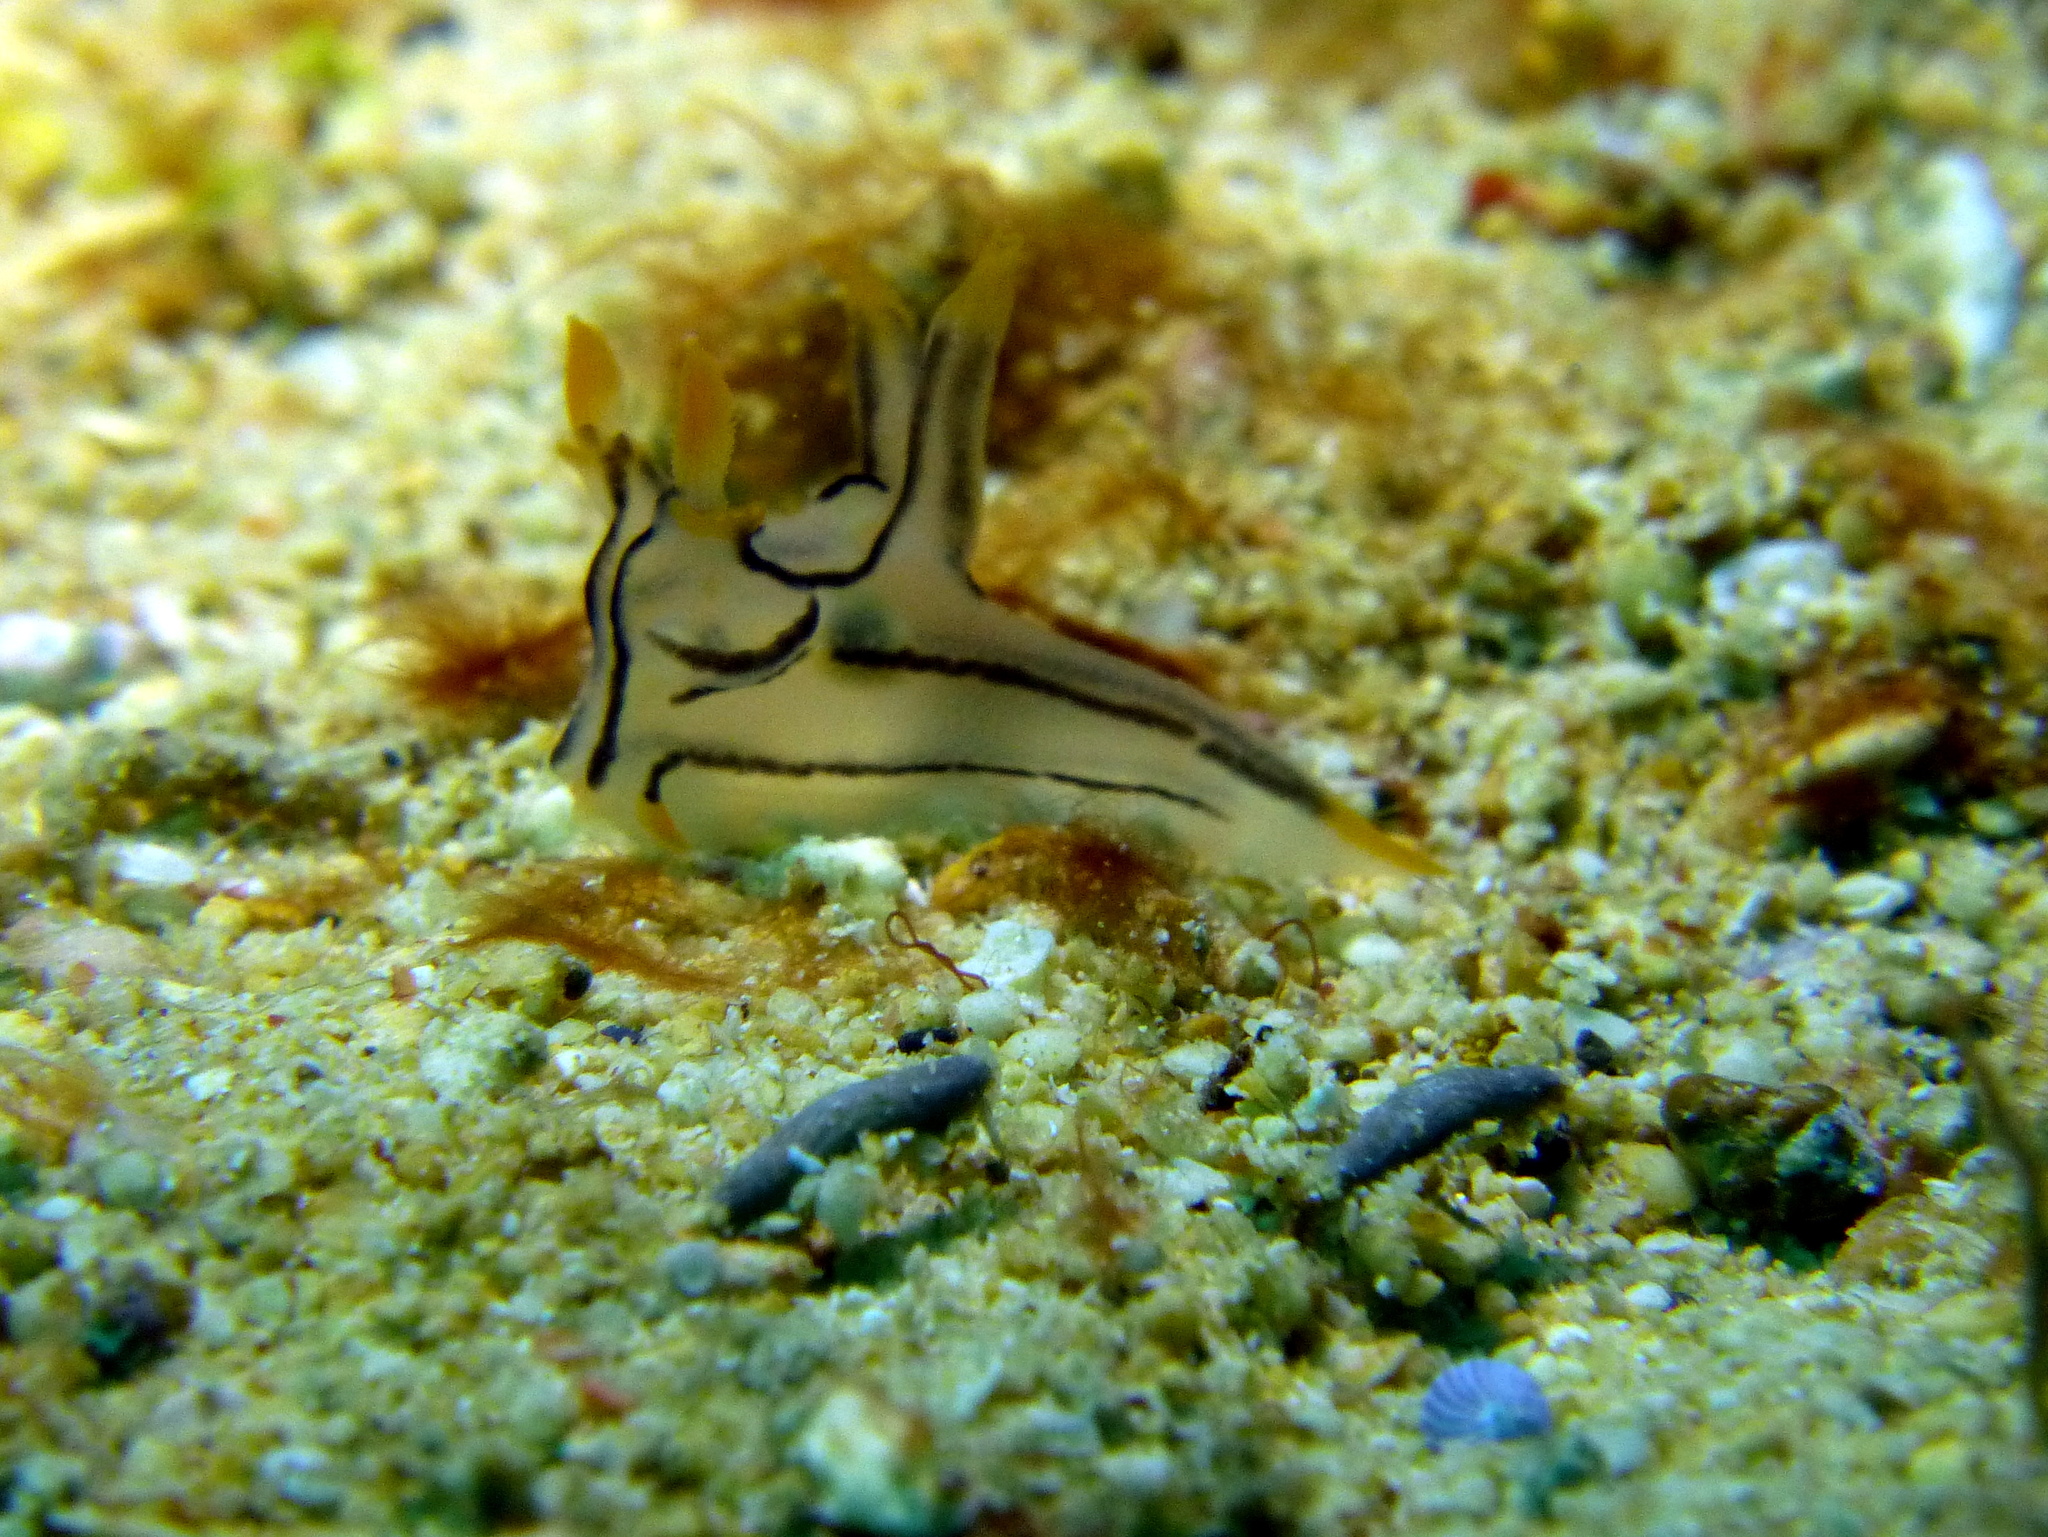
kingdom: Animalia
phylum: Mollusca
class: Gastropoda
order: Nudibranchia
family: Polyceridae
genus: Thecacera
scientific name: Thecacera picta
